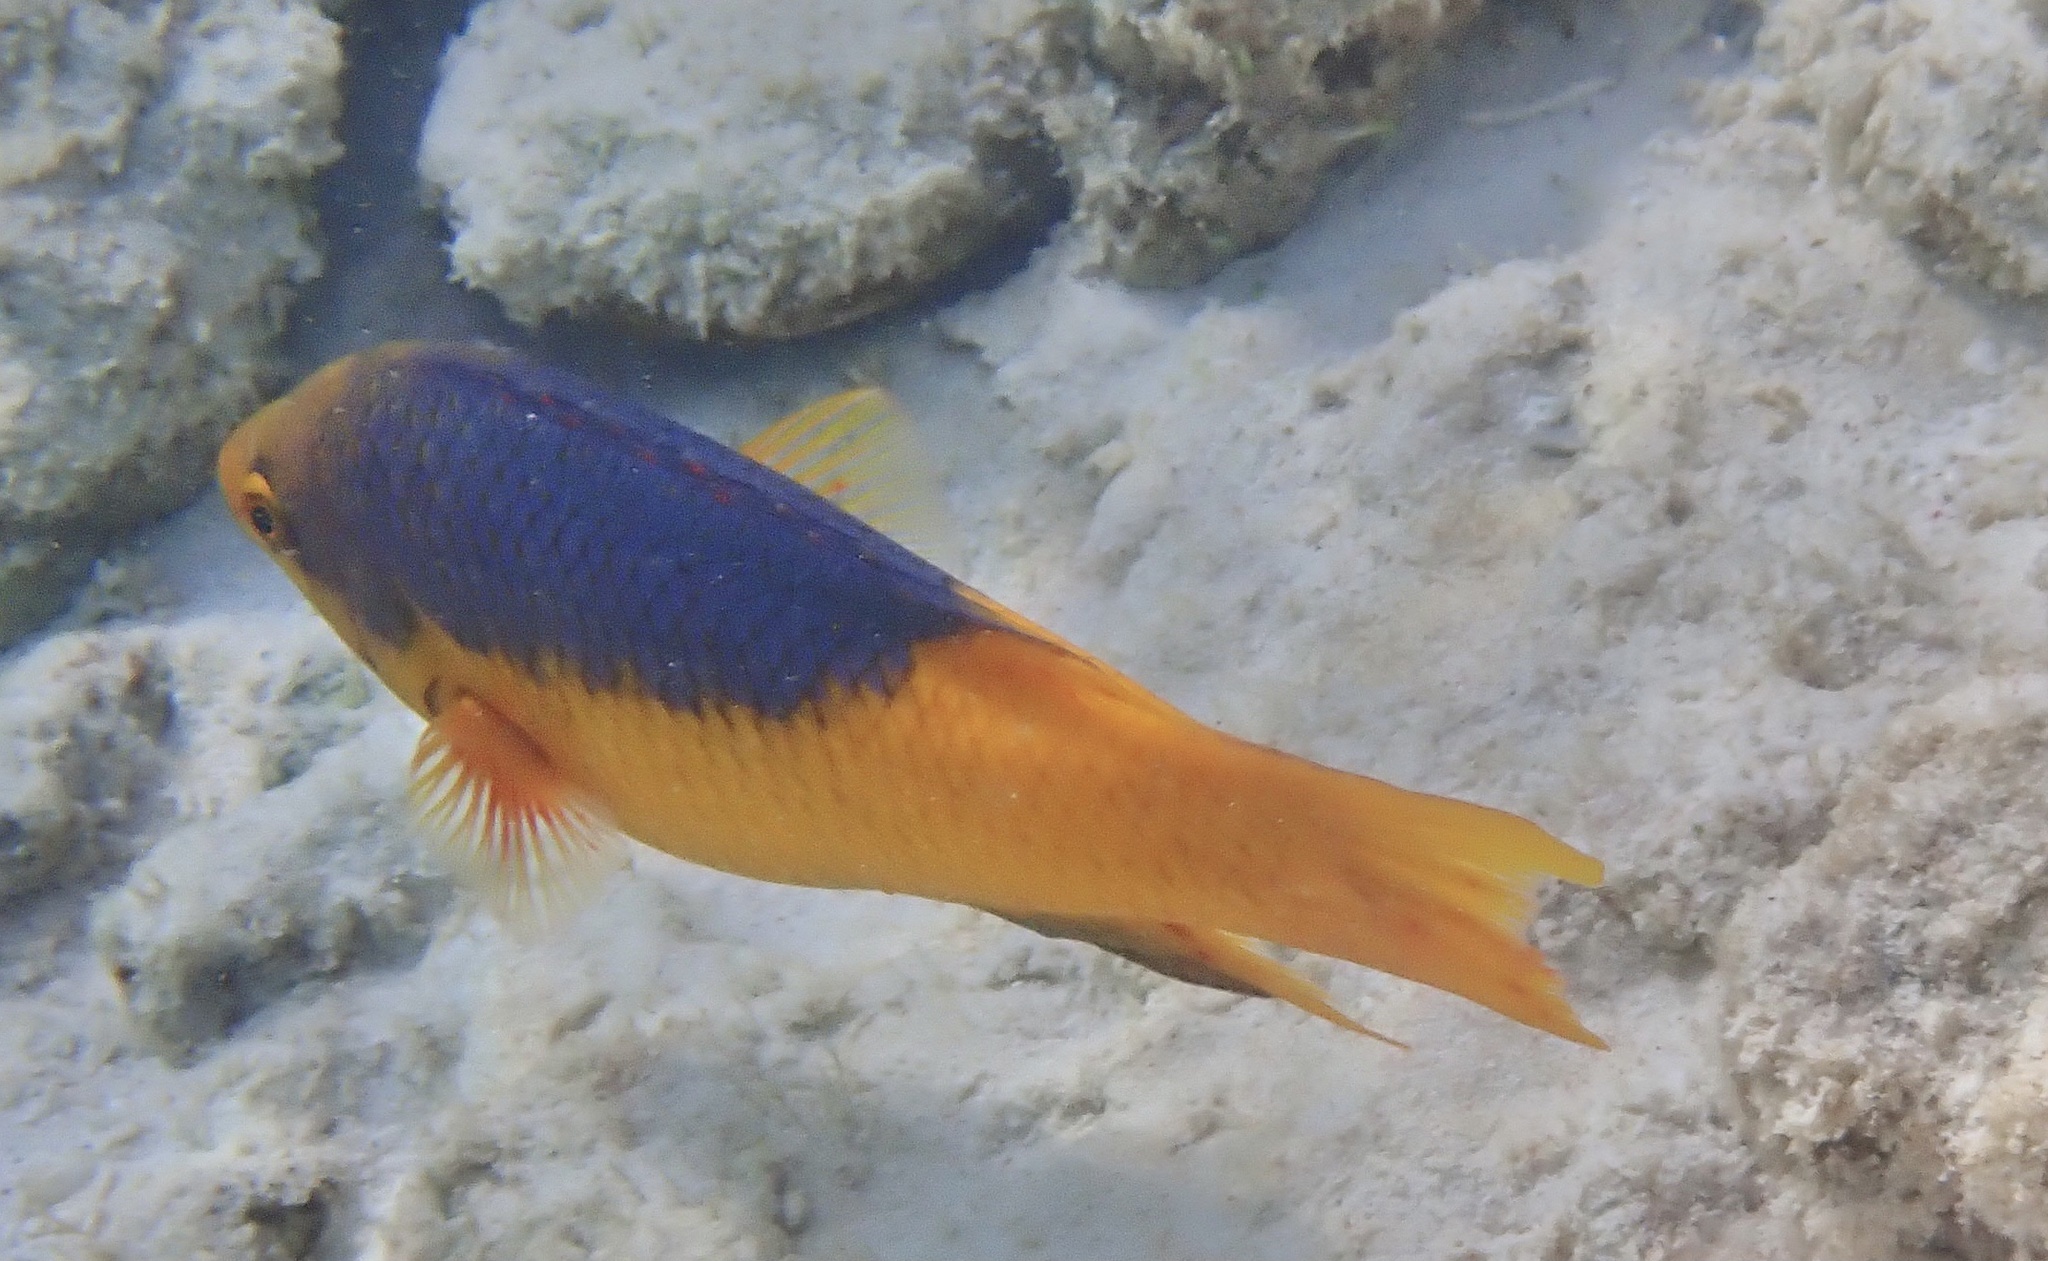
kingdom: Animalia
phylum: Chordata
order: Perciformes
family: Labridae
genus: Bodianus
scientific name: Bodianus rufus
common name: Spanish hogfish
